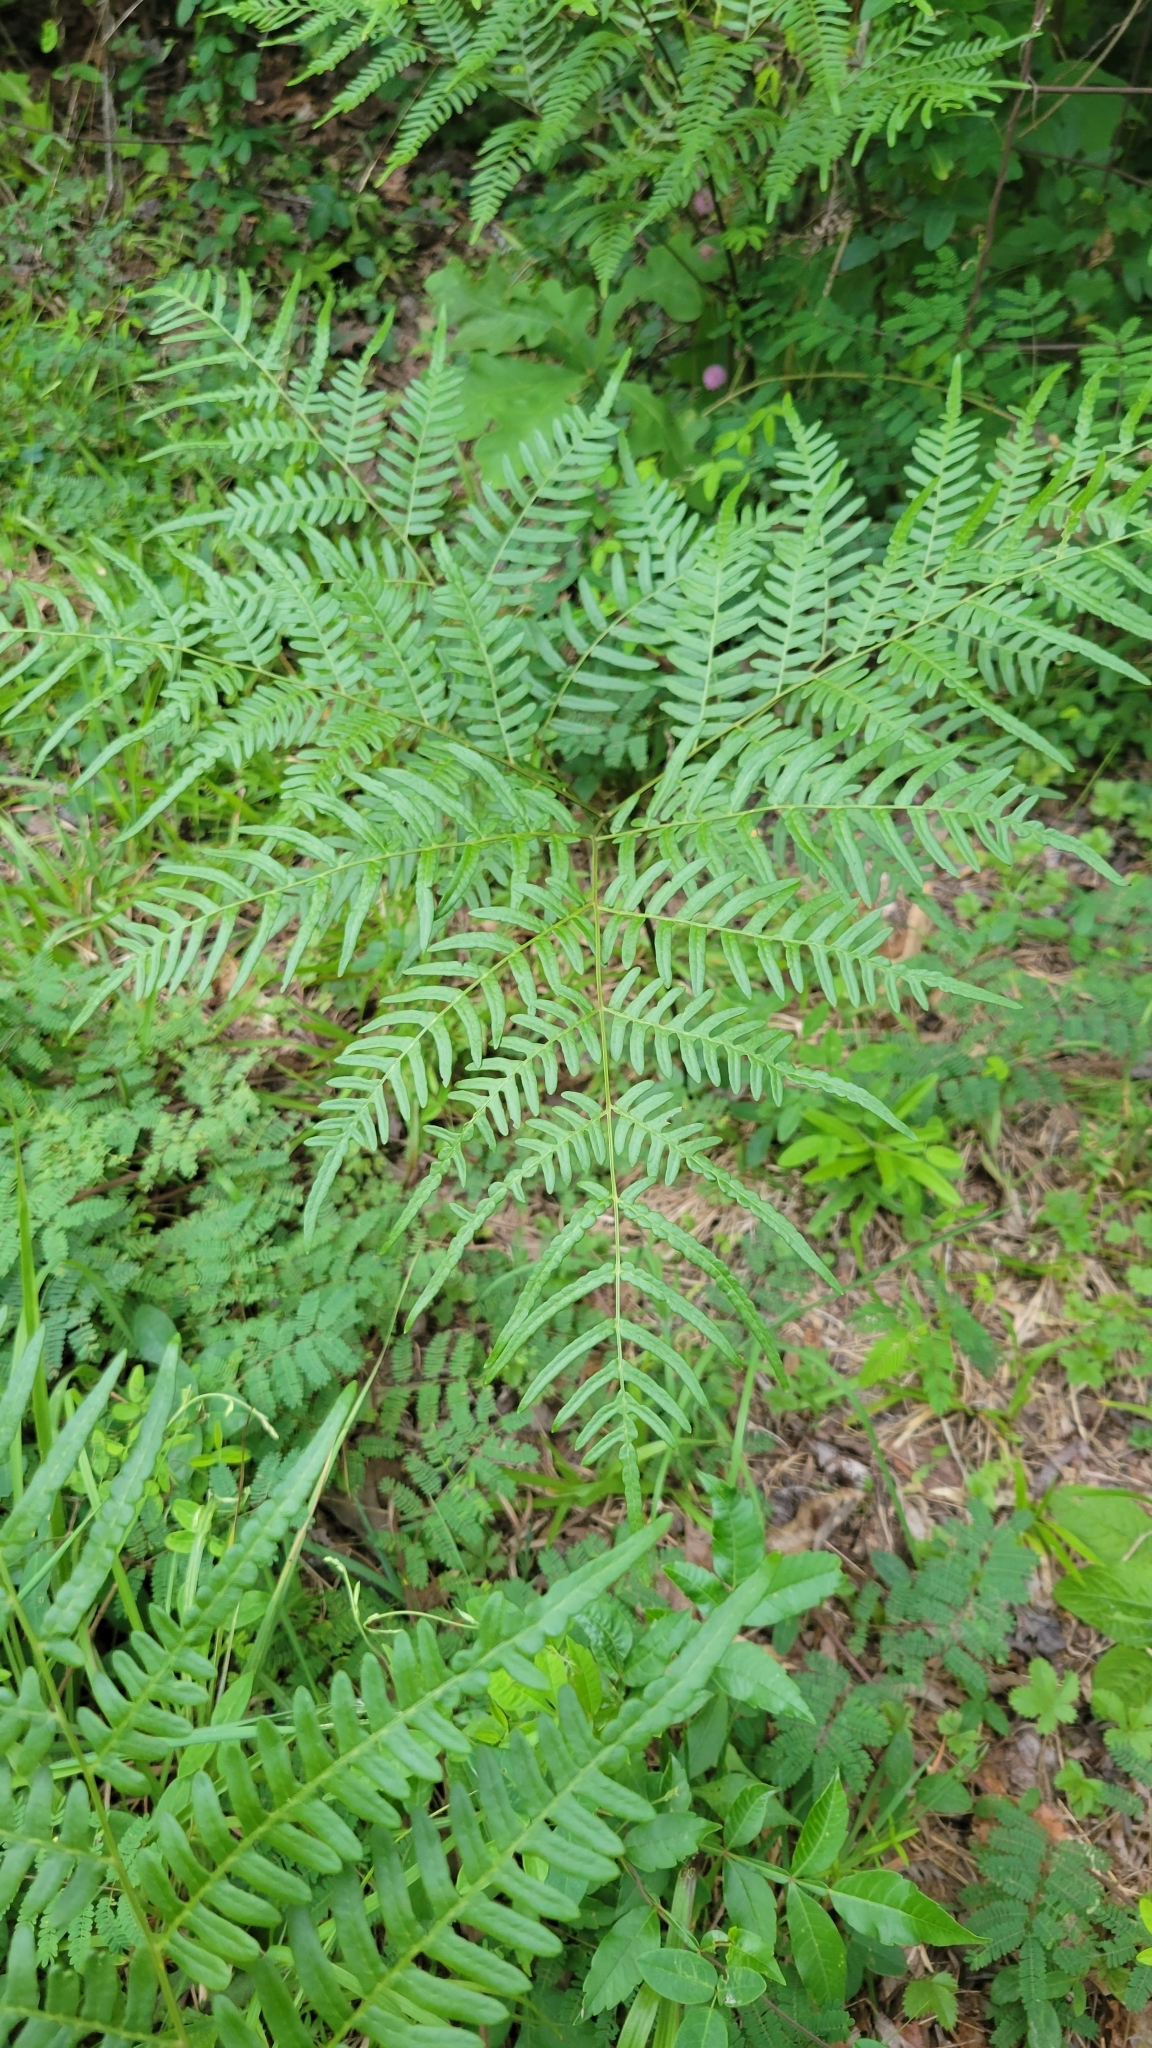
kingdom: Plantae
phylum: Tracheophyta
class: Polypodiopsida
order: Polypodiales
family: Dennstaedtiaceae
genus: Pteridium
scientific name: Pteridium aquilinum
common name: Bracken
